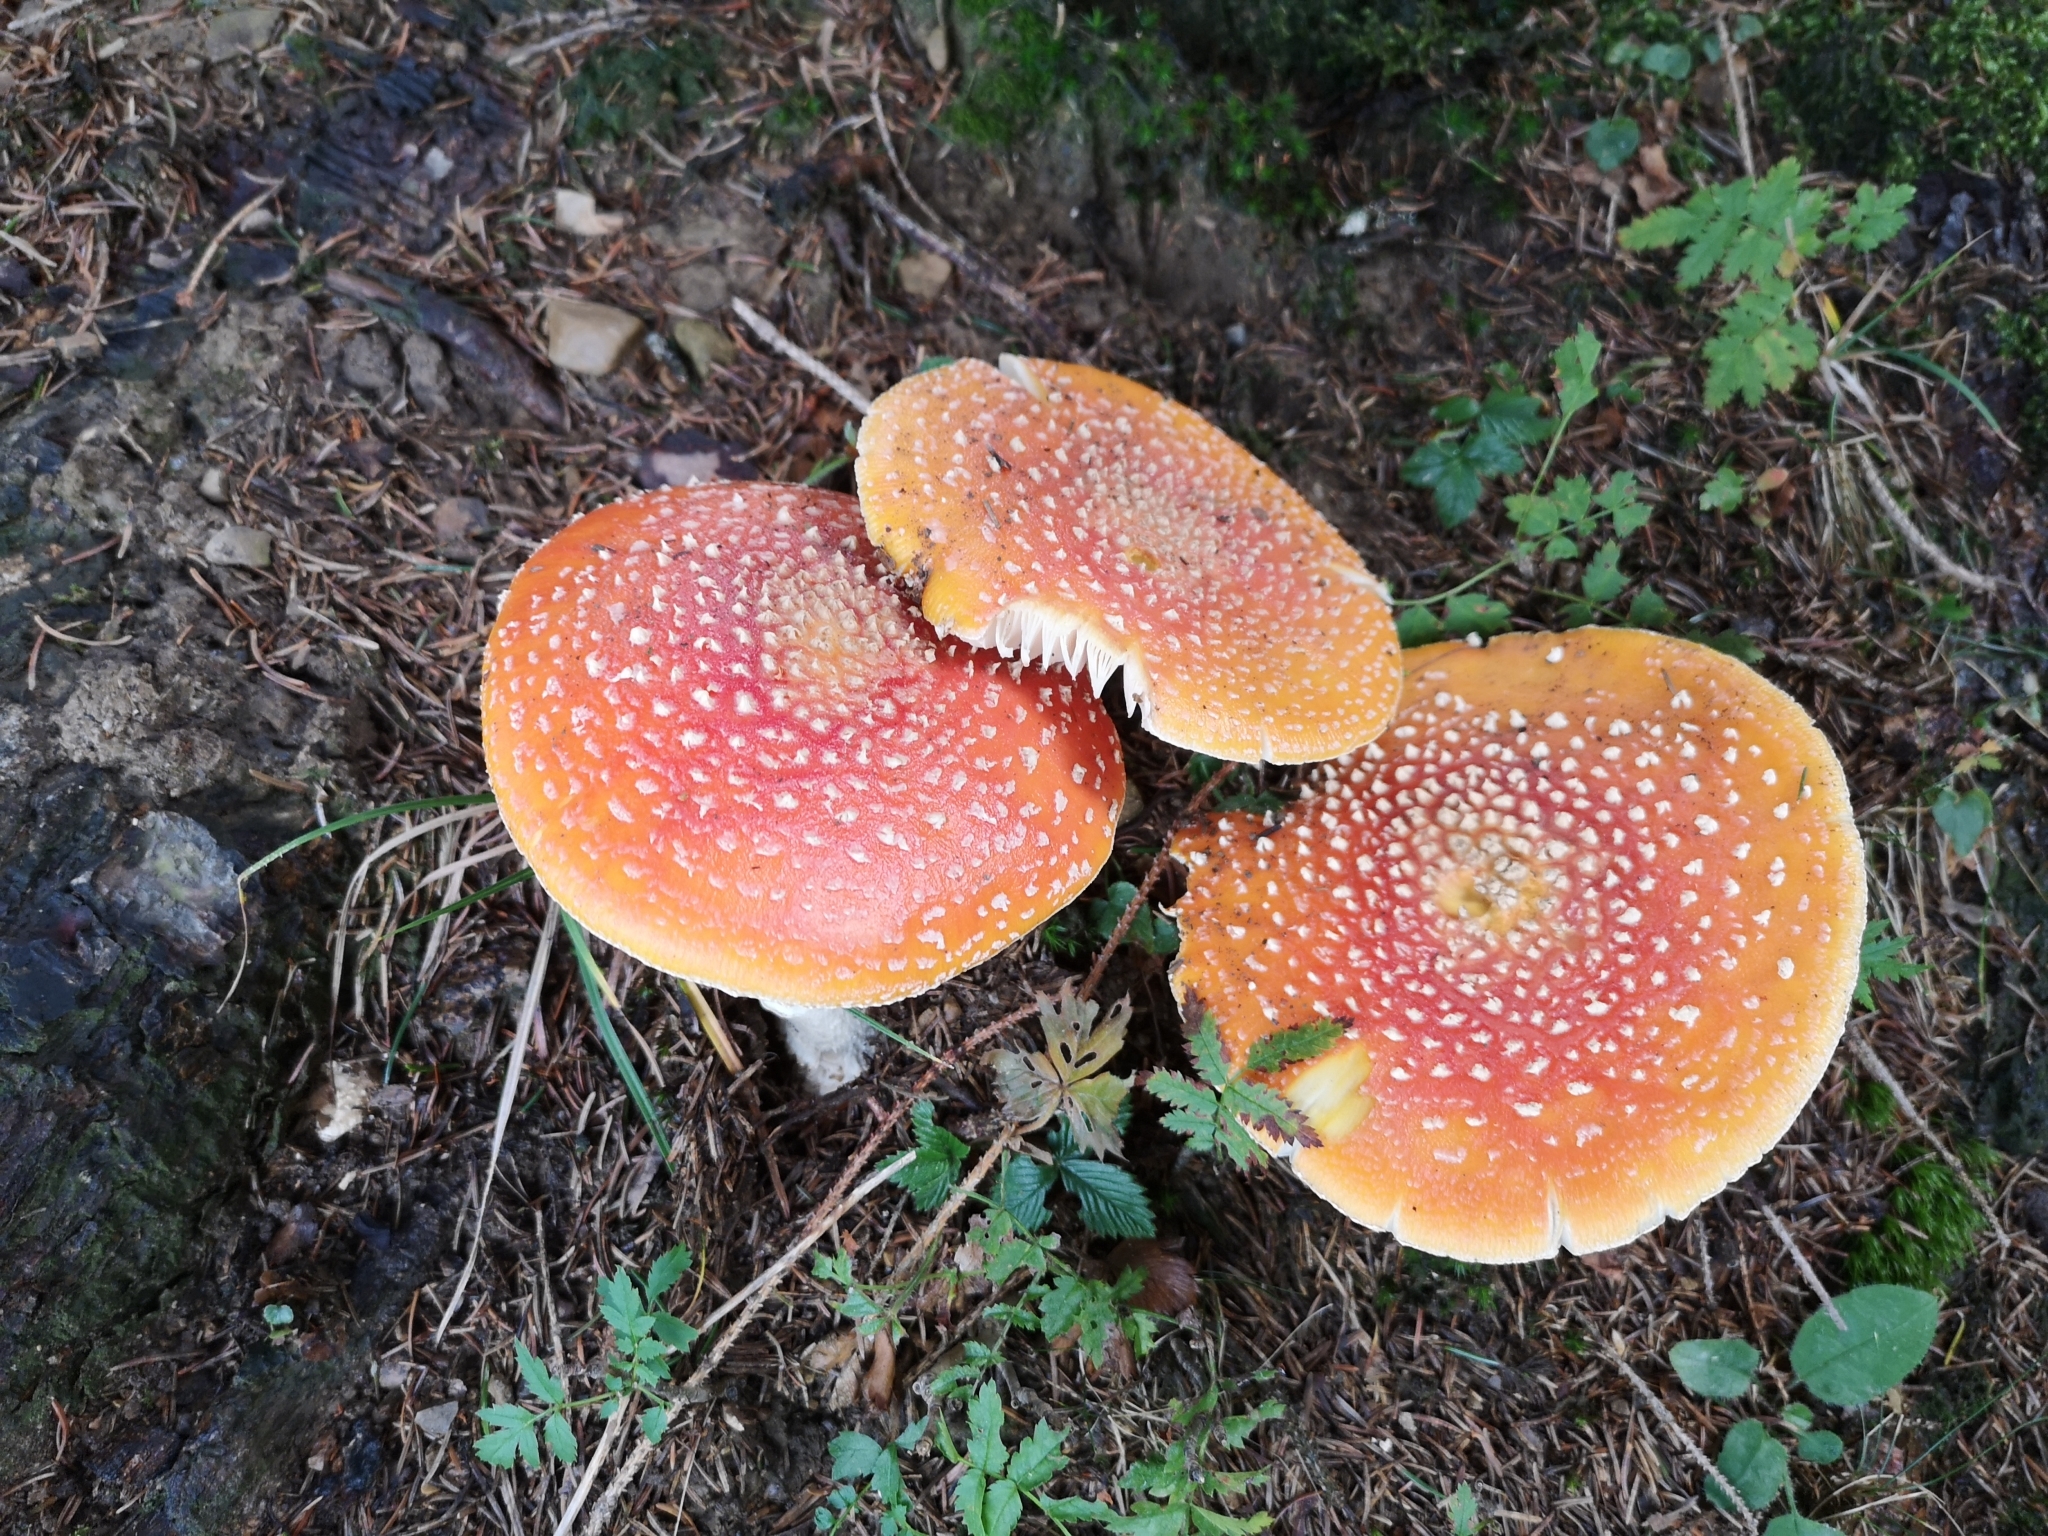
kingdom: Fungi
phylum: Basidiomycota
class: Agaricomycetes
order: Agaricales
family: Amanitaceae
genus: Amanita
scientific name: Amanita muscaria
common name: Fly agaric
